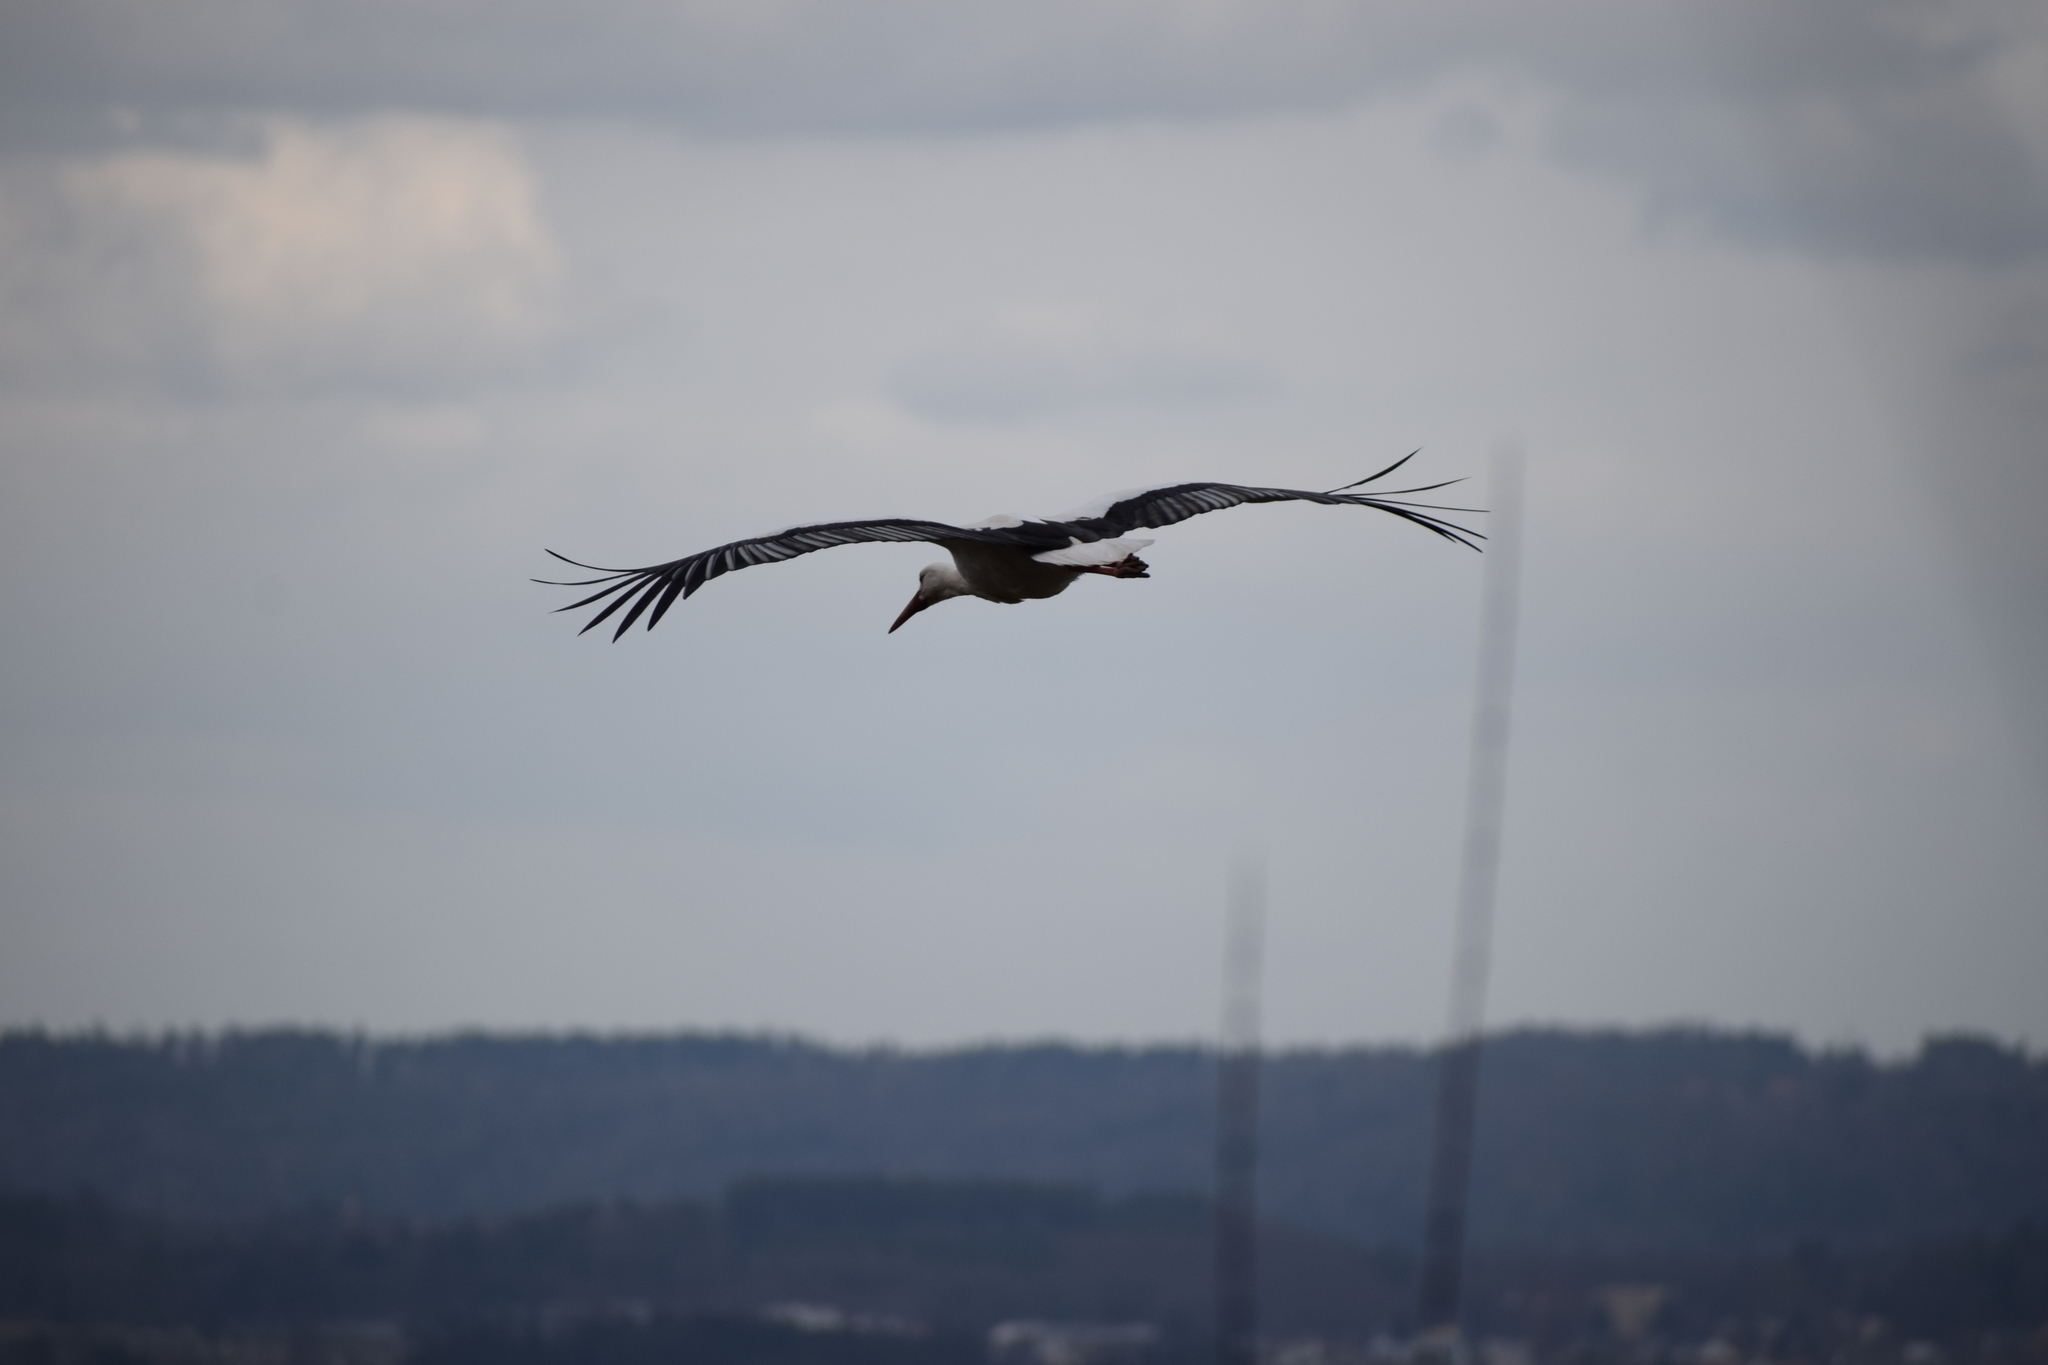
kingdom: Animalia
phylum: Chordata
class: Aves
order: Ciconiiformes
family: Ciconiidae
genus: Ciconia
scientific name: Ciconia ciconia
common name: White stork
